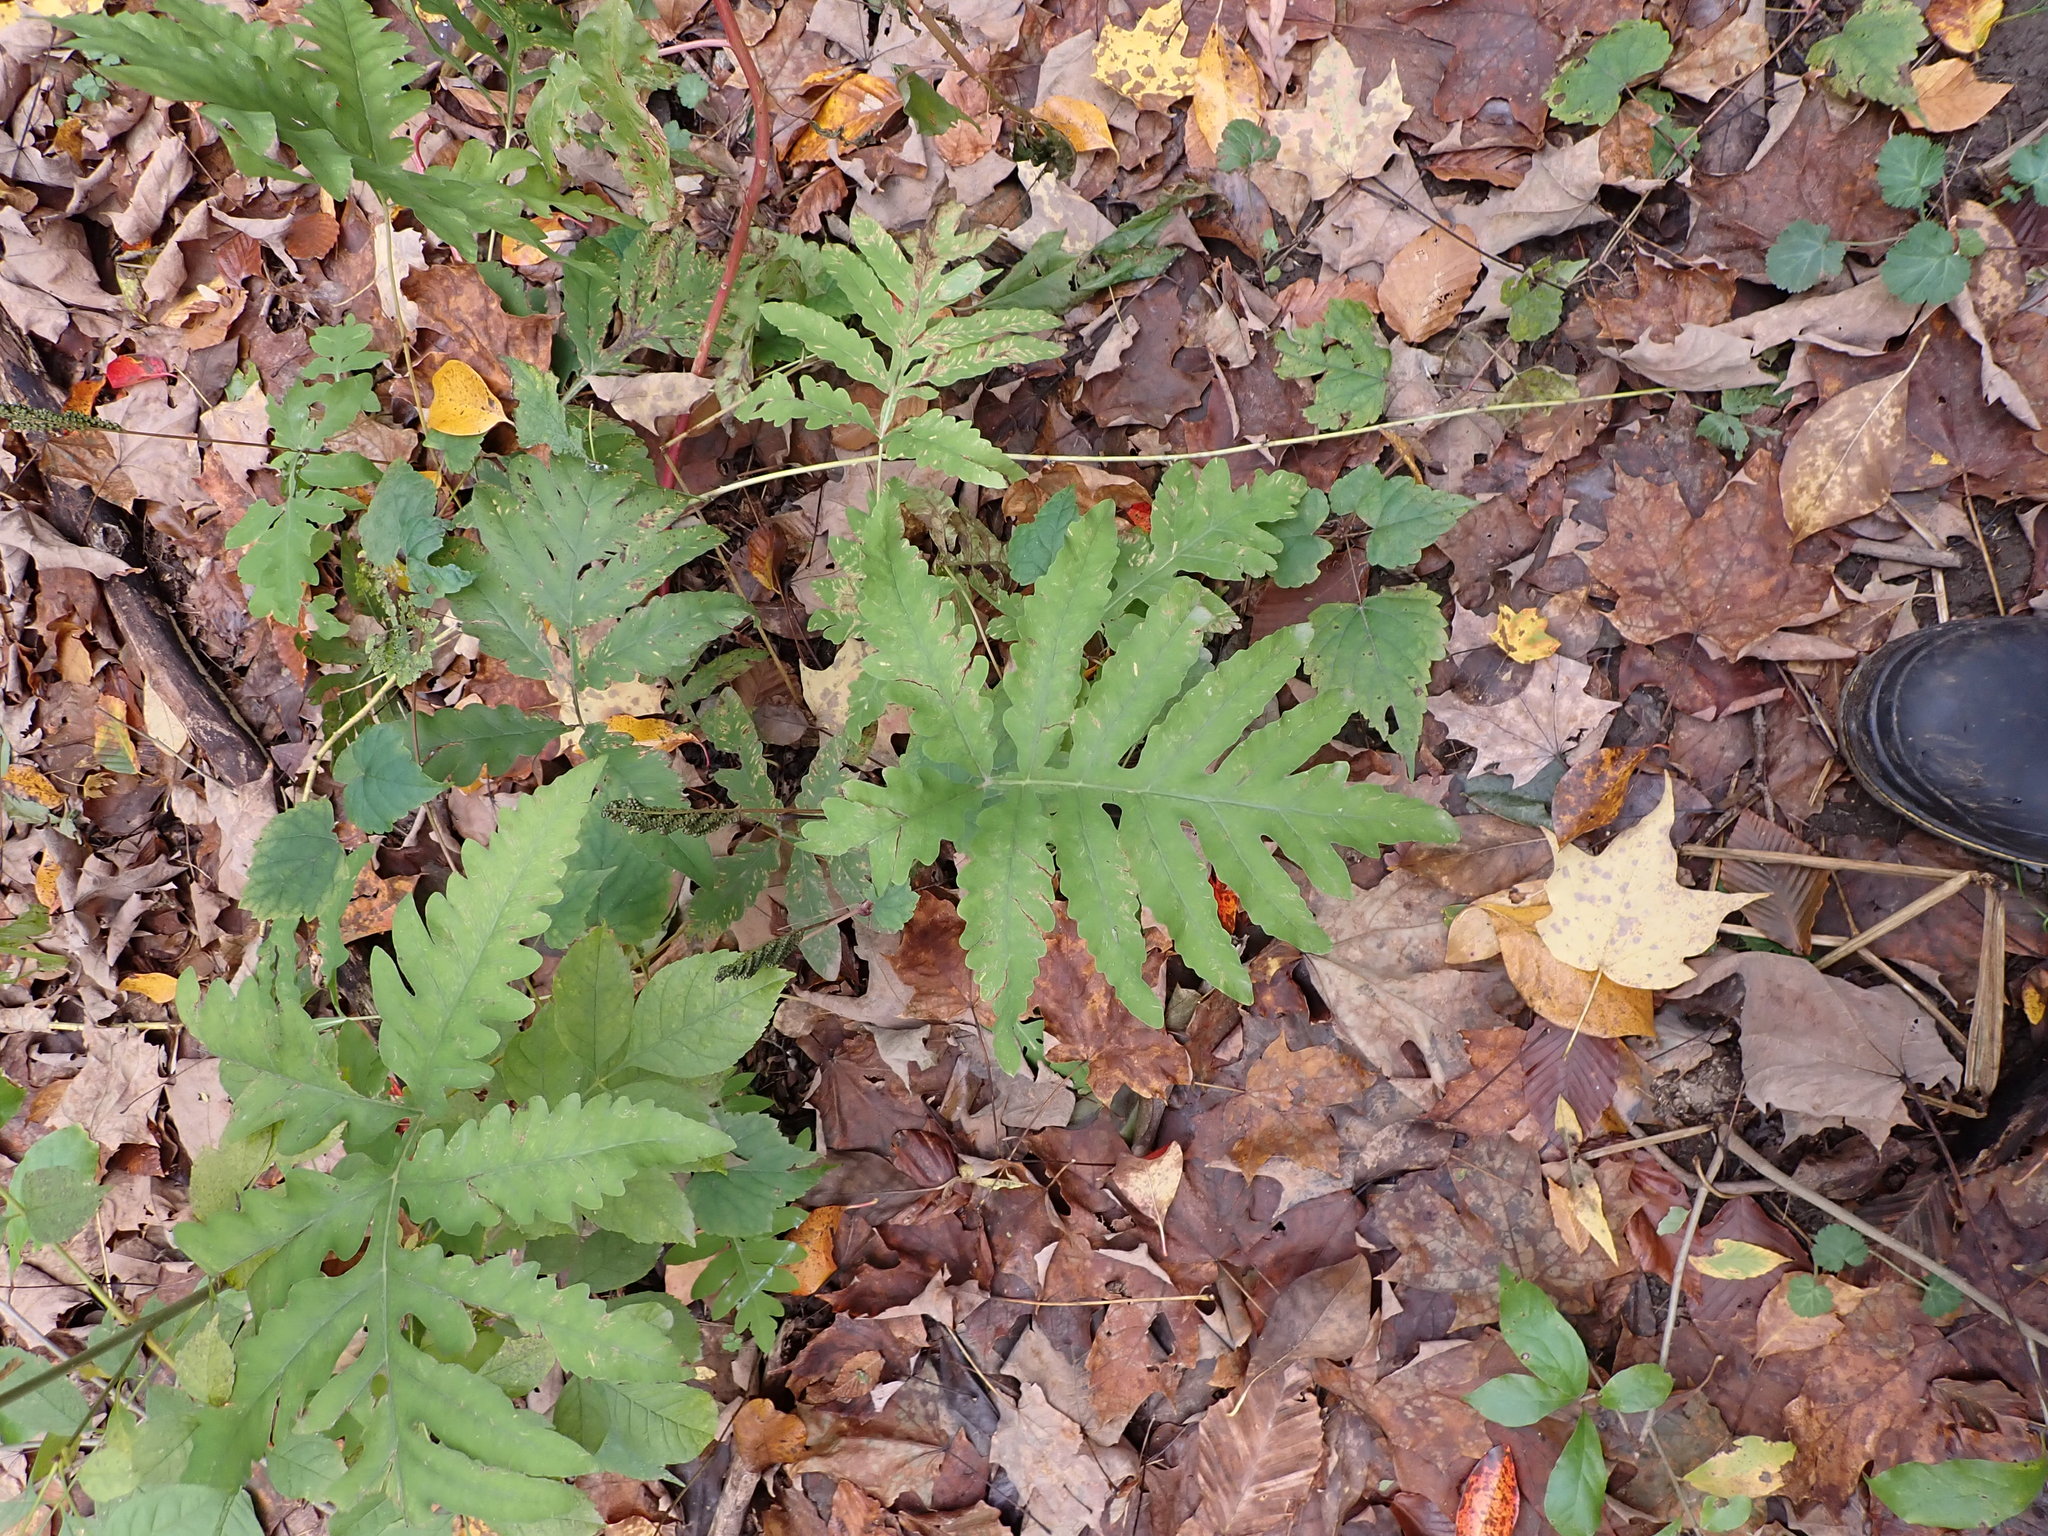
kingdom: Plantae
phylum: Tracheophyta
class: Polypodiopsida
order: Polypodiales
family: Onocleaceae
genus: Onoclea
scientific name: Onoclea sensibilis
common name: Sensitive fern
